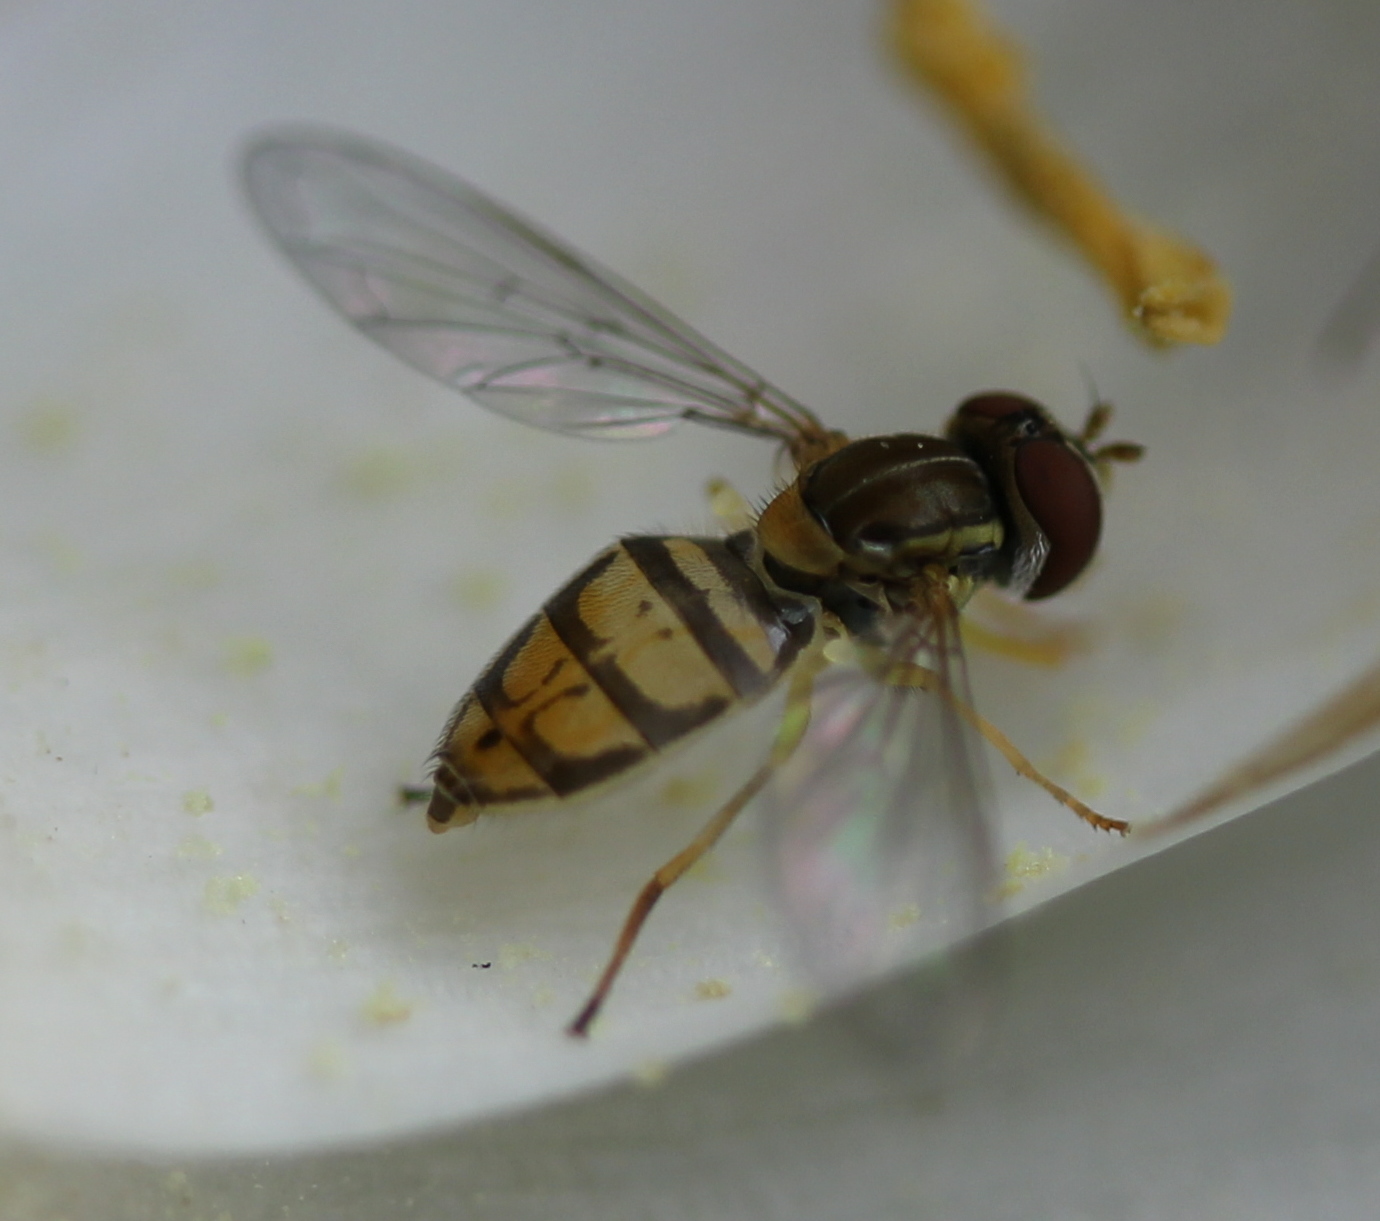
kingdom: Animalia
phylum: Arthropoda
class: Insecta
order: Diptera
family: Syrphidae
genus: Toxomerus
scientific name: Toxomerus marginatus
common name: Syrphid fly
